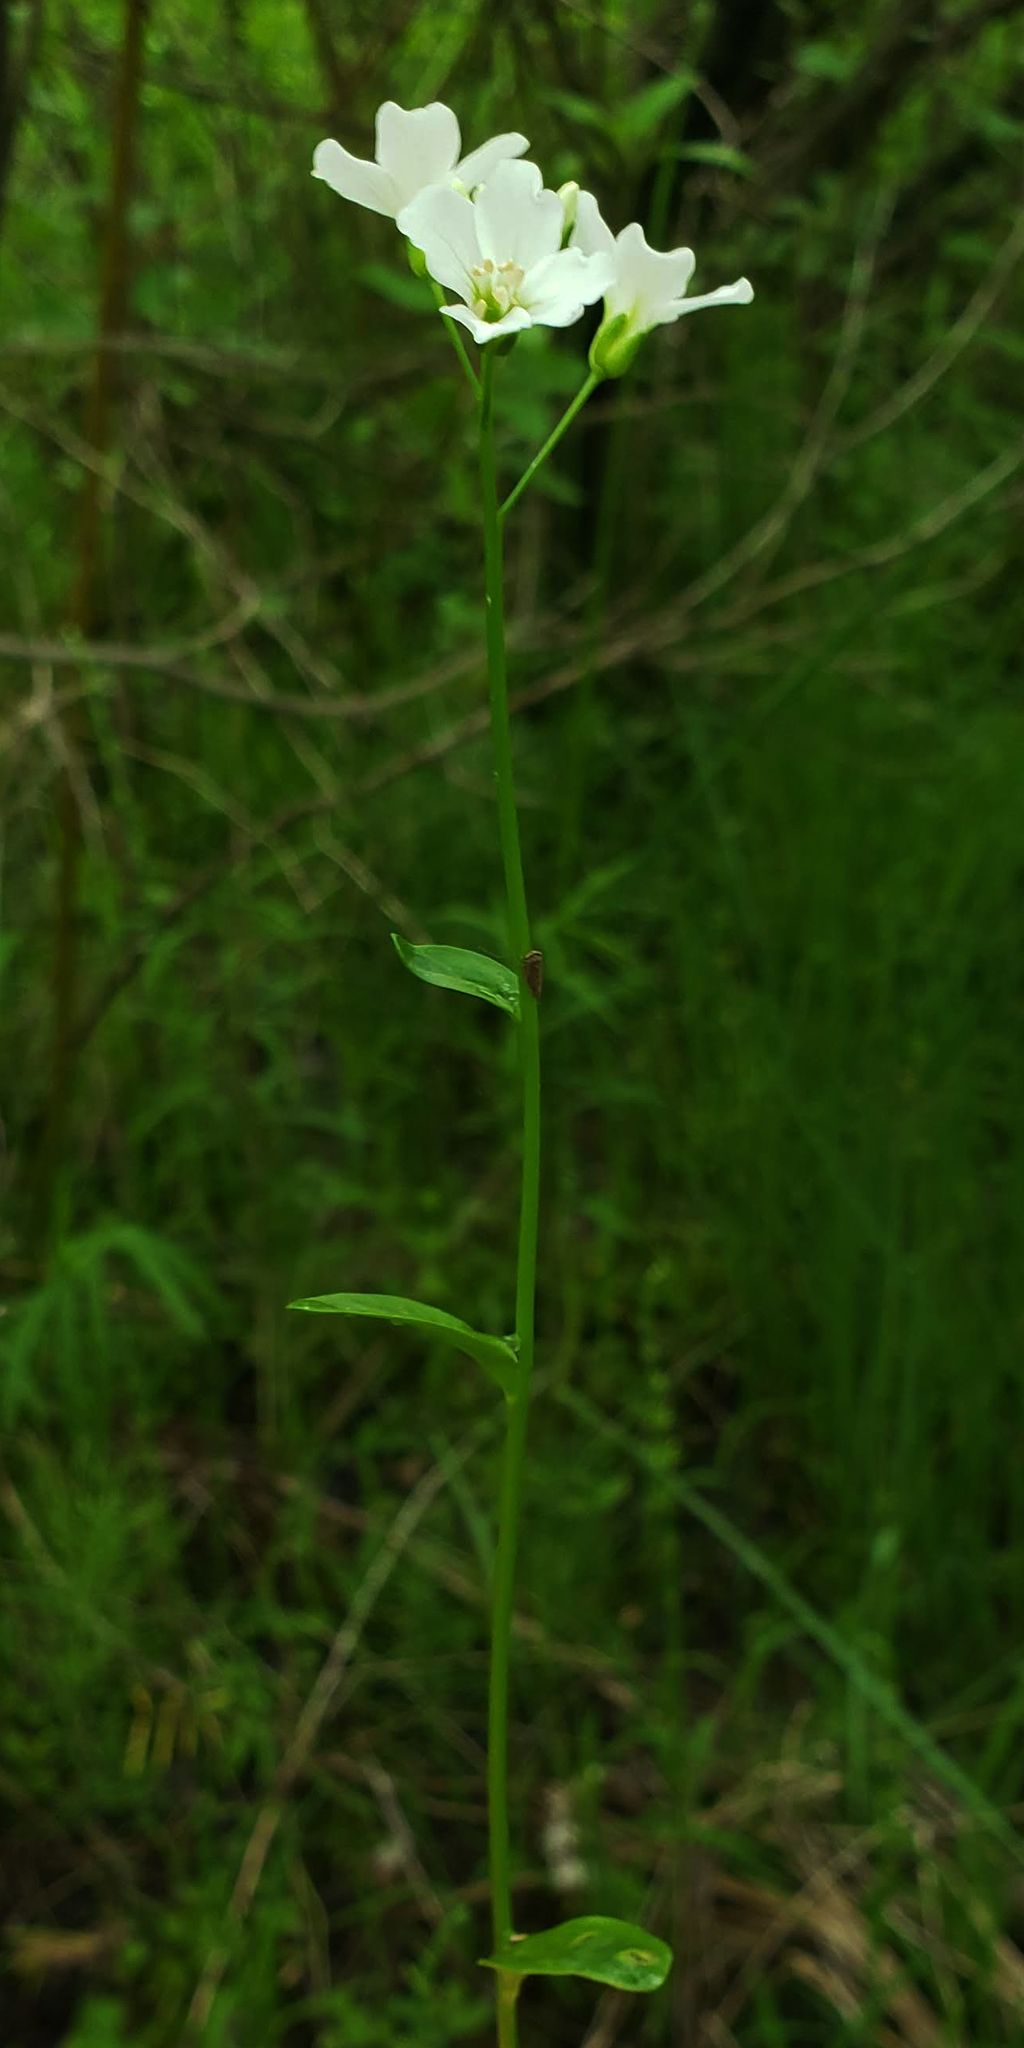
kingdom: Plantae
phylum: Tracheophyta
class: Magnoliopsida
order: Brassicales
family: Brassicaceae
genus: Cardamine
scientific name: Cardamine bulbosa
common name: Spring cress
